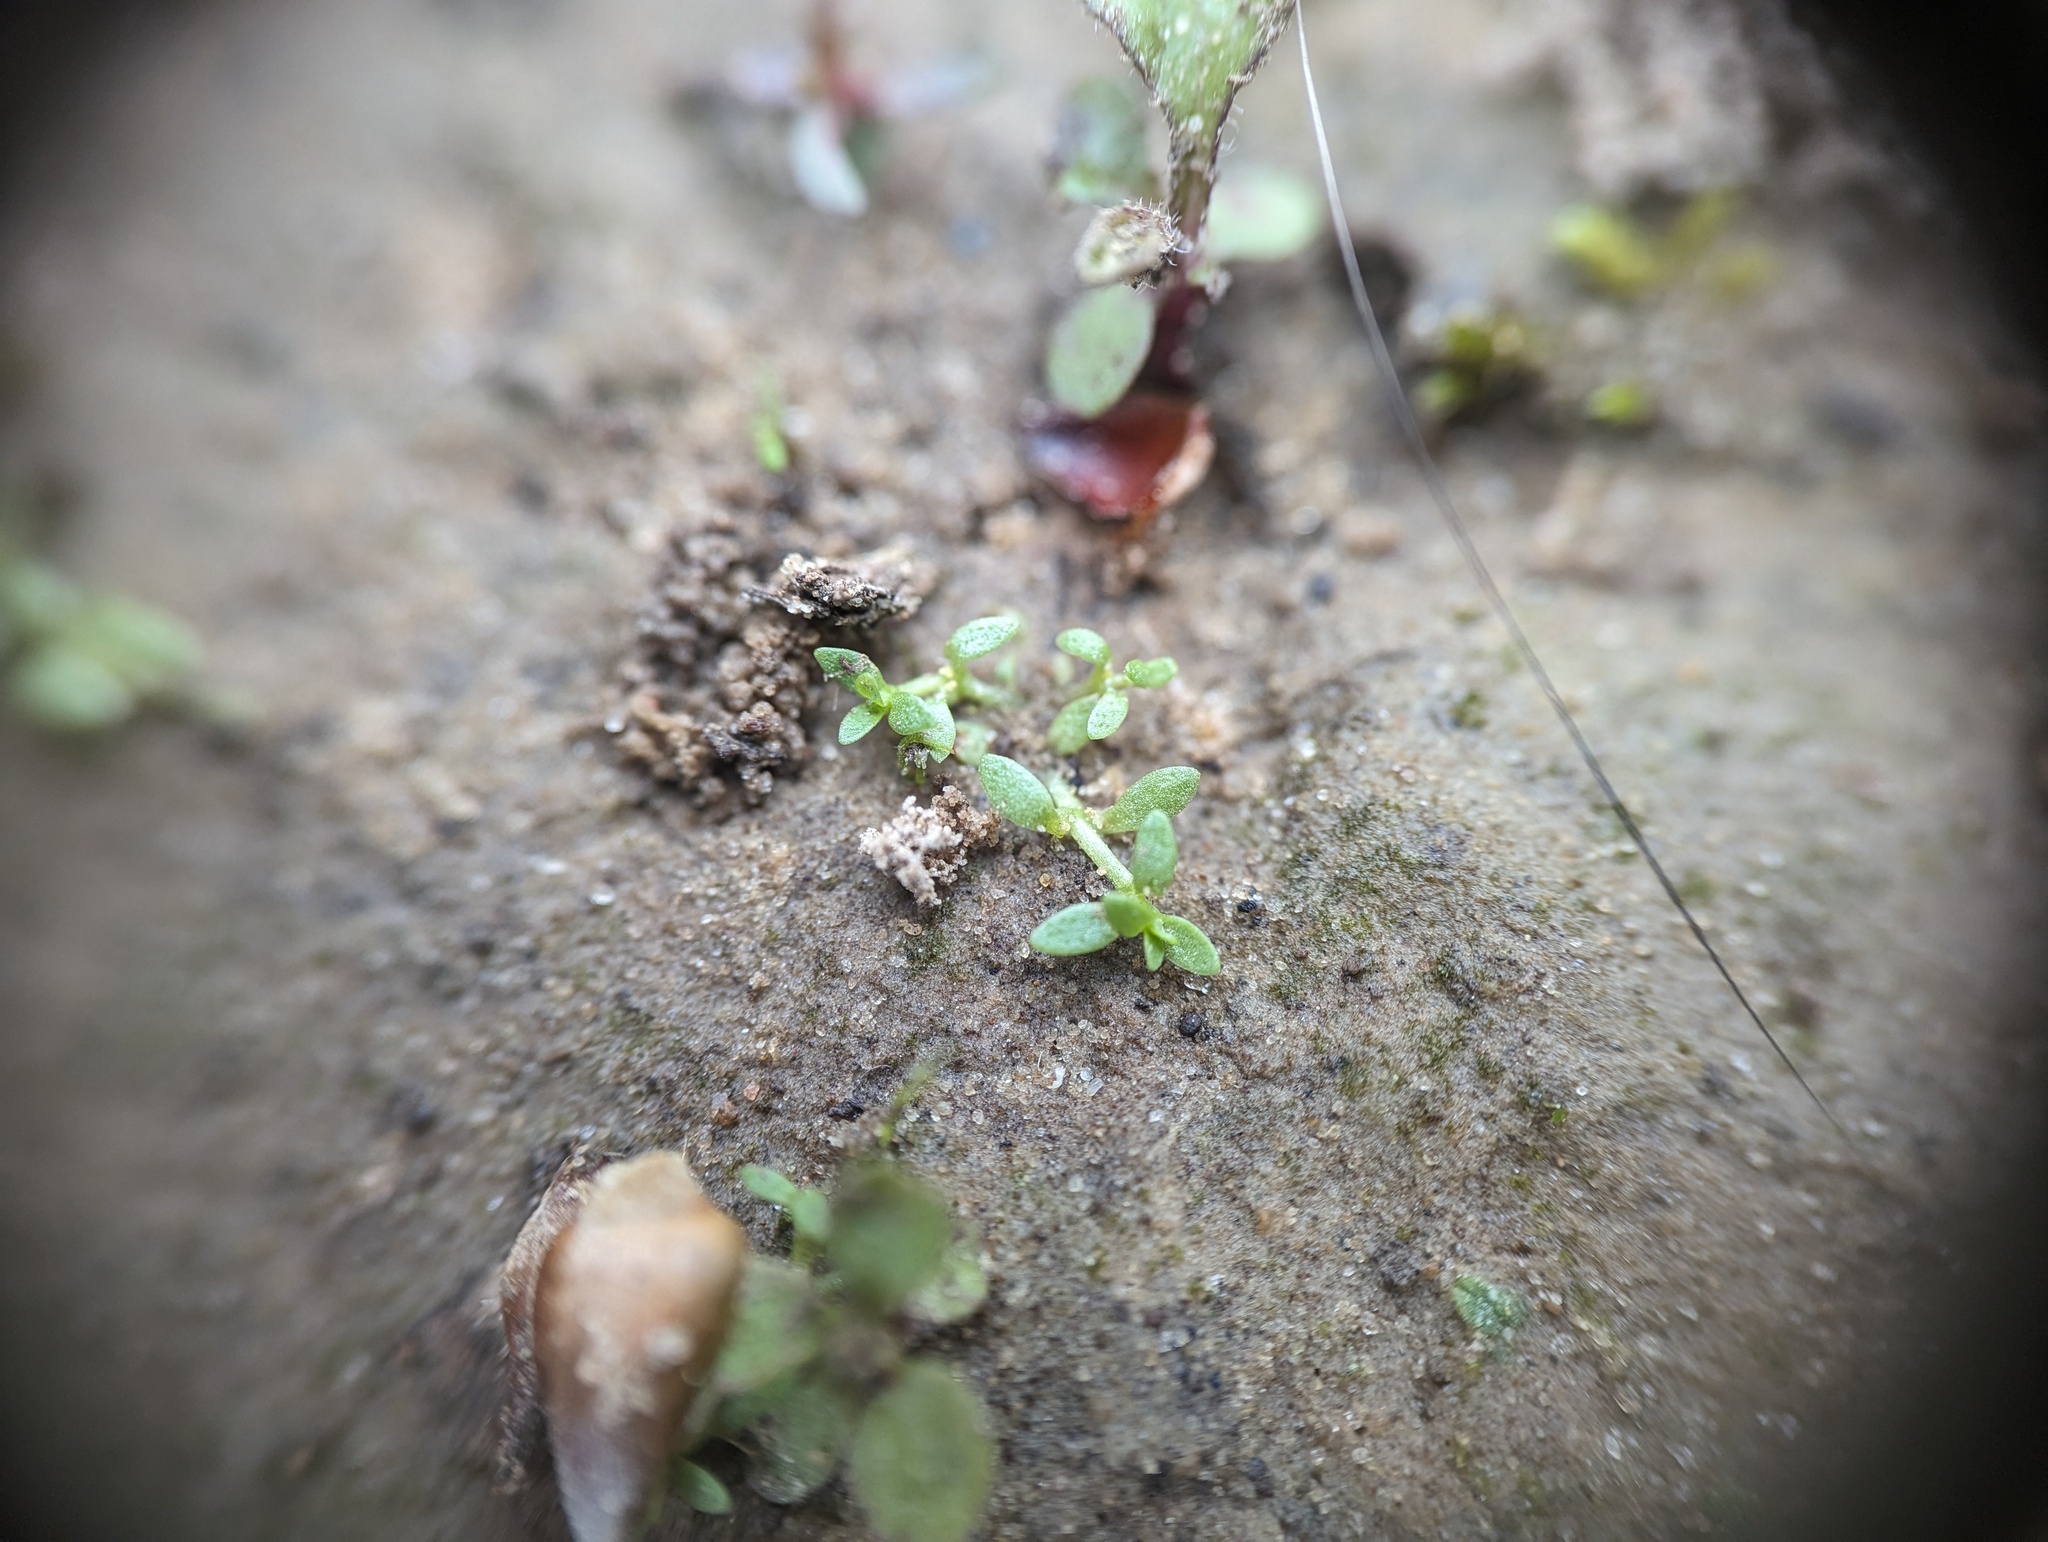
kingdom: Plantae
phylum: Tracheophyta
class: Magnoliopsida
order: Lamiales
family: Plantaginaceae
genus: Callitriche
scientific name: Callitriche terrestris
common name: Terrestrial water-starwort
